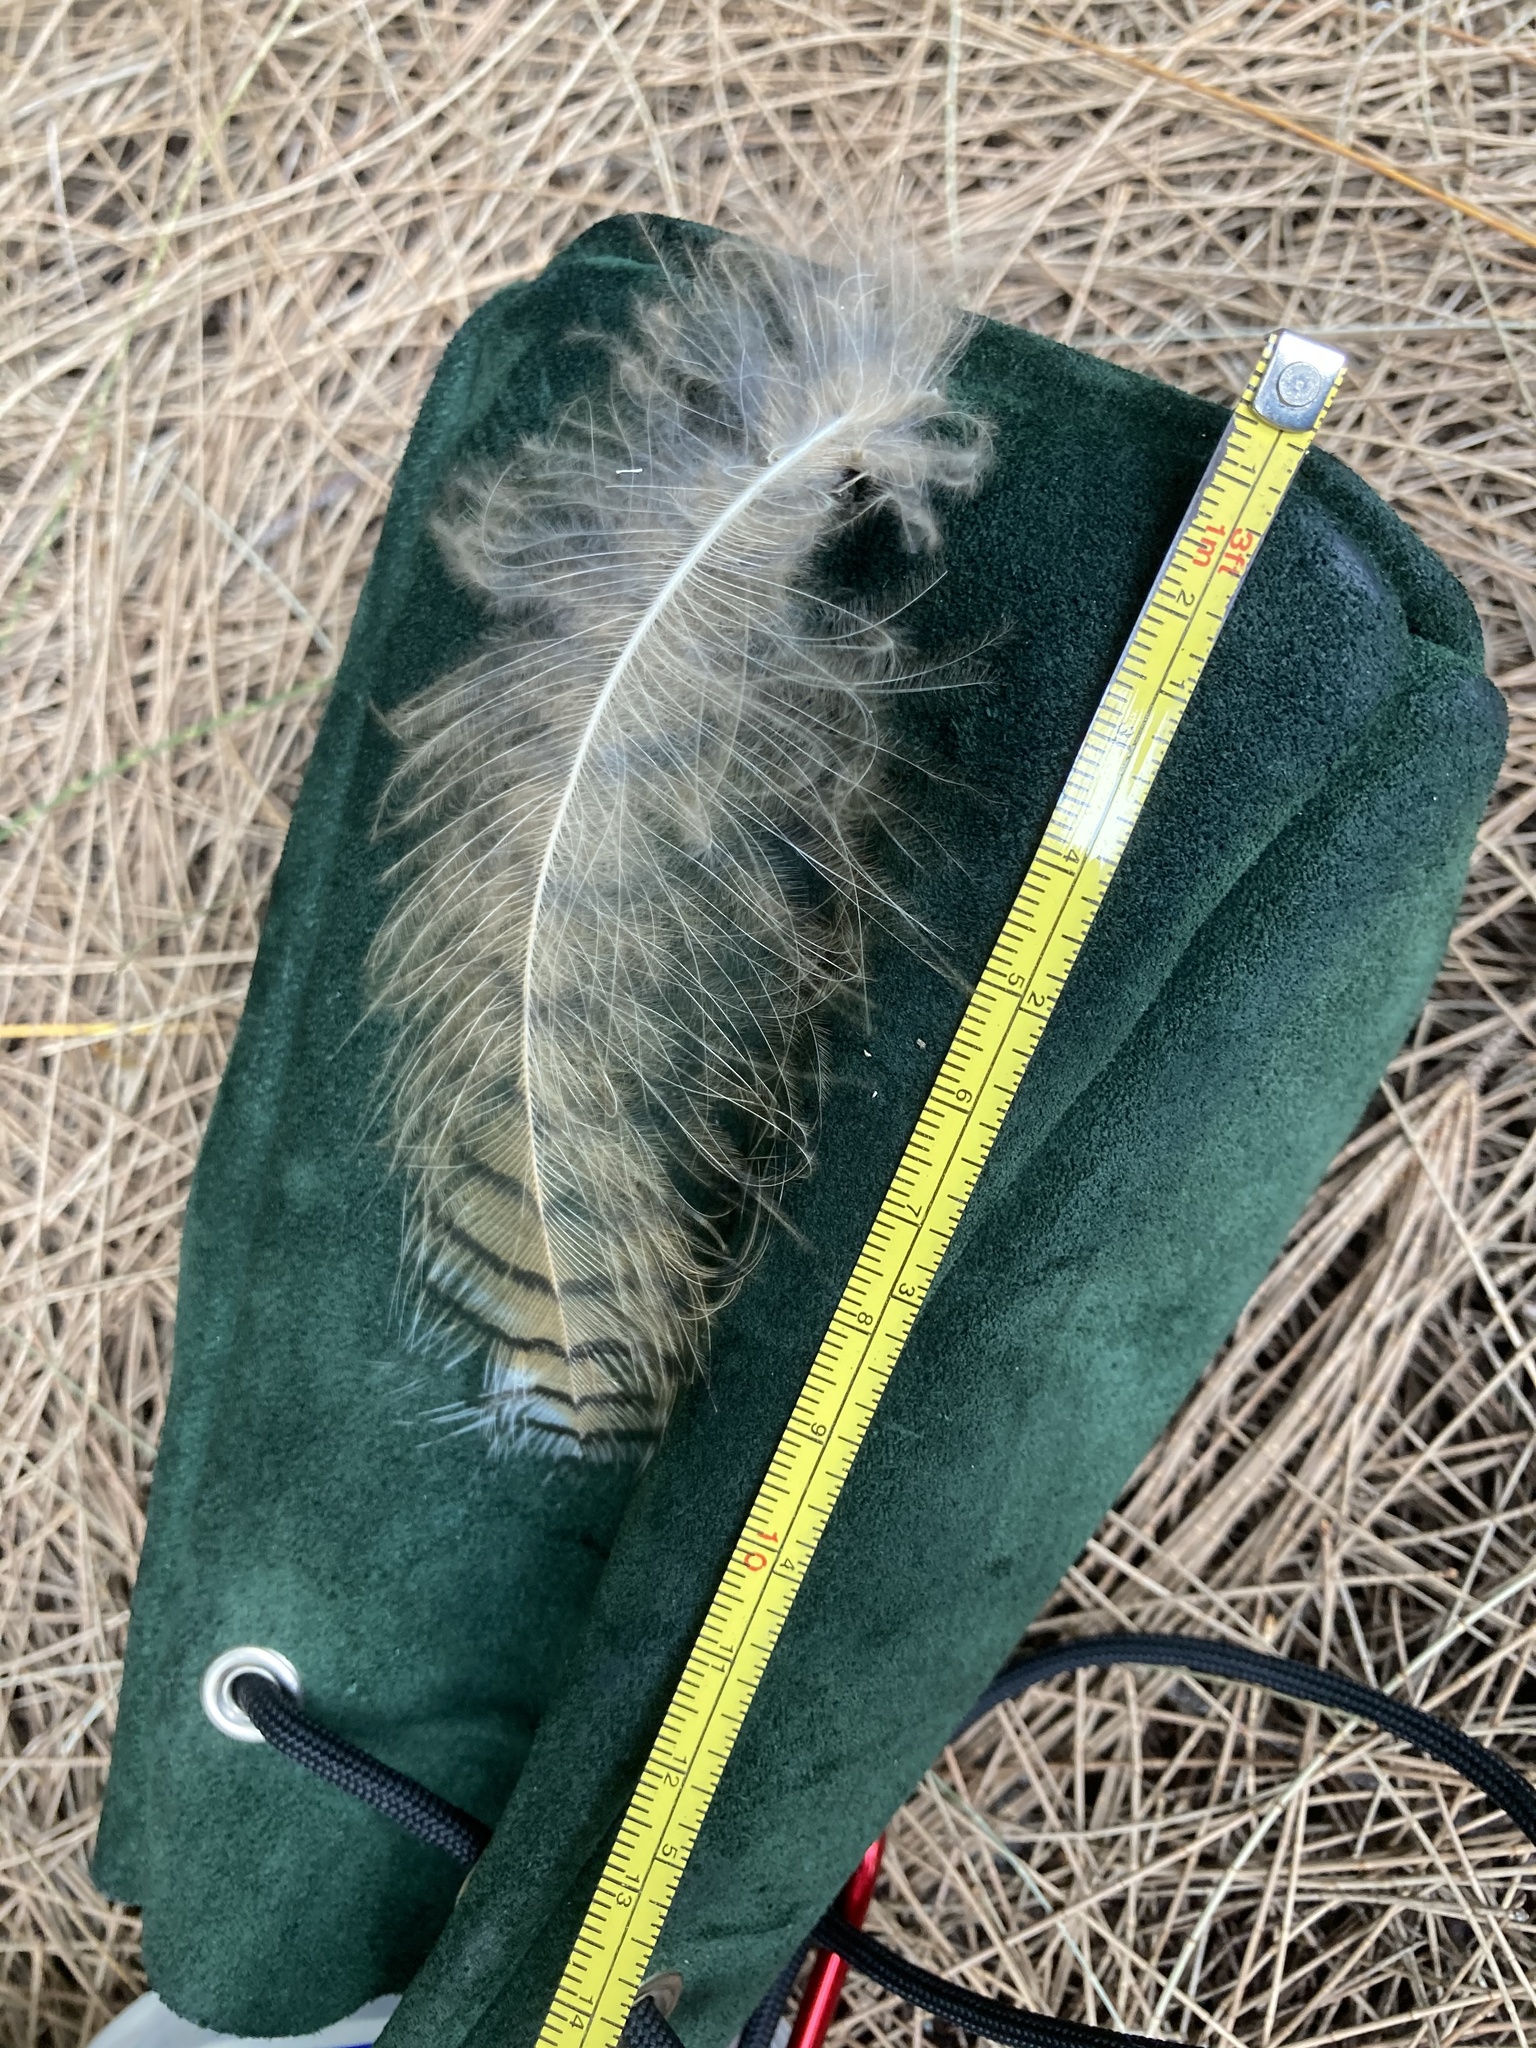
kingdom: Animalia
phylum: Chordata
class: Aves
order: Strigiformes
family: Strigidae
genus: Bubo
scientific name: Bubo virginianus
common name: Great horned owl
